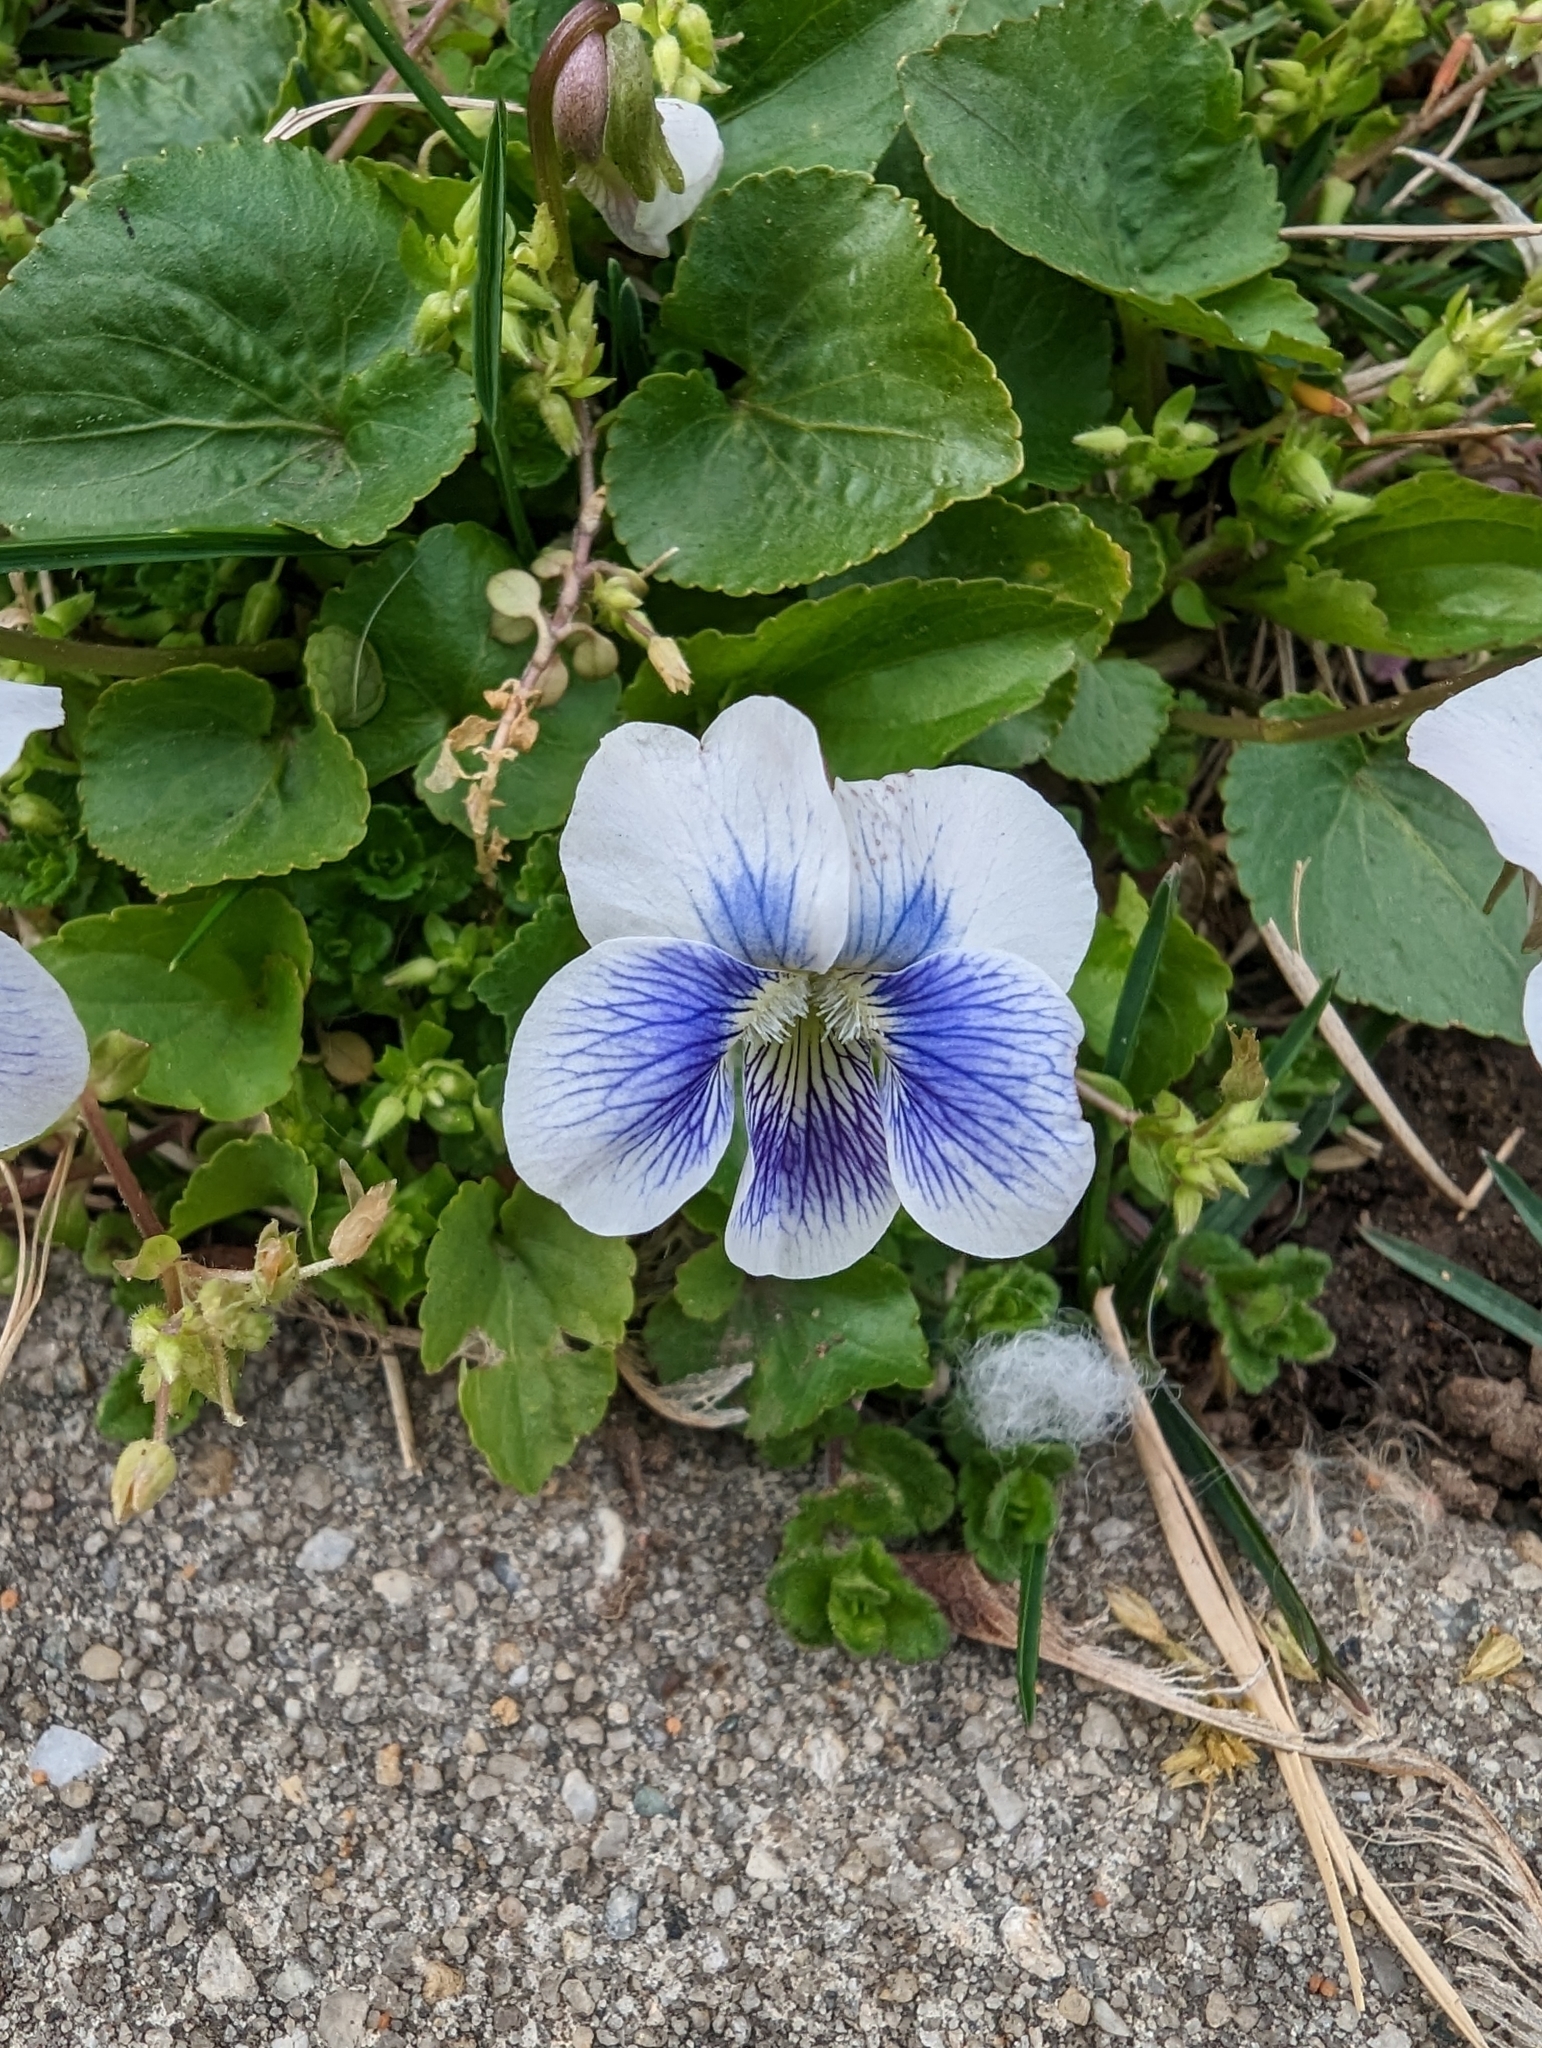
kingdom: Plantae
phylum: Tracheophyta
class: Magnoliopsida
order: Malpighiales
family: Violaceae
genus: Viola
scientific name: Viola sororia
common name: Dooryard violet
